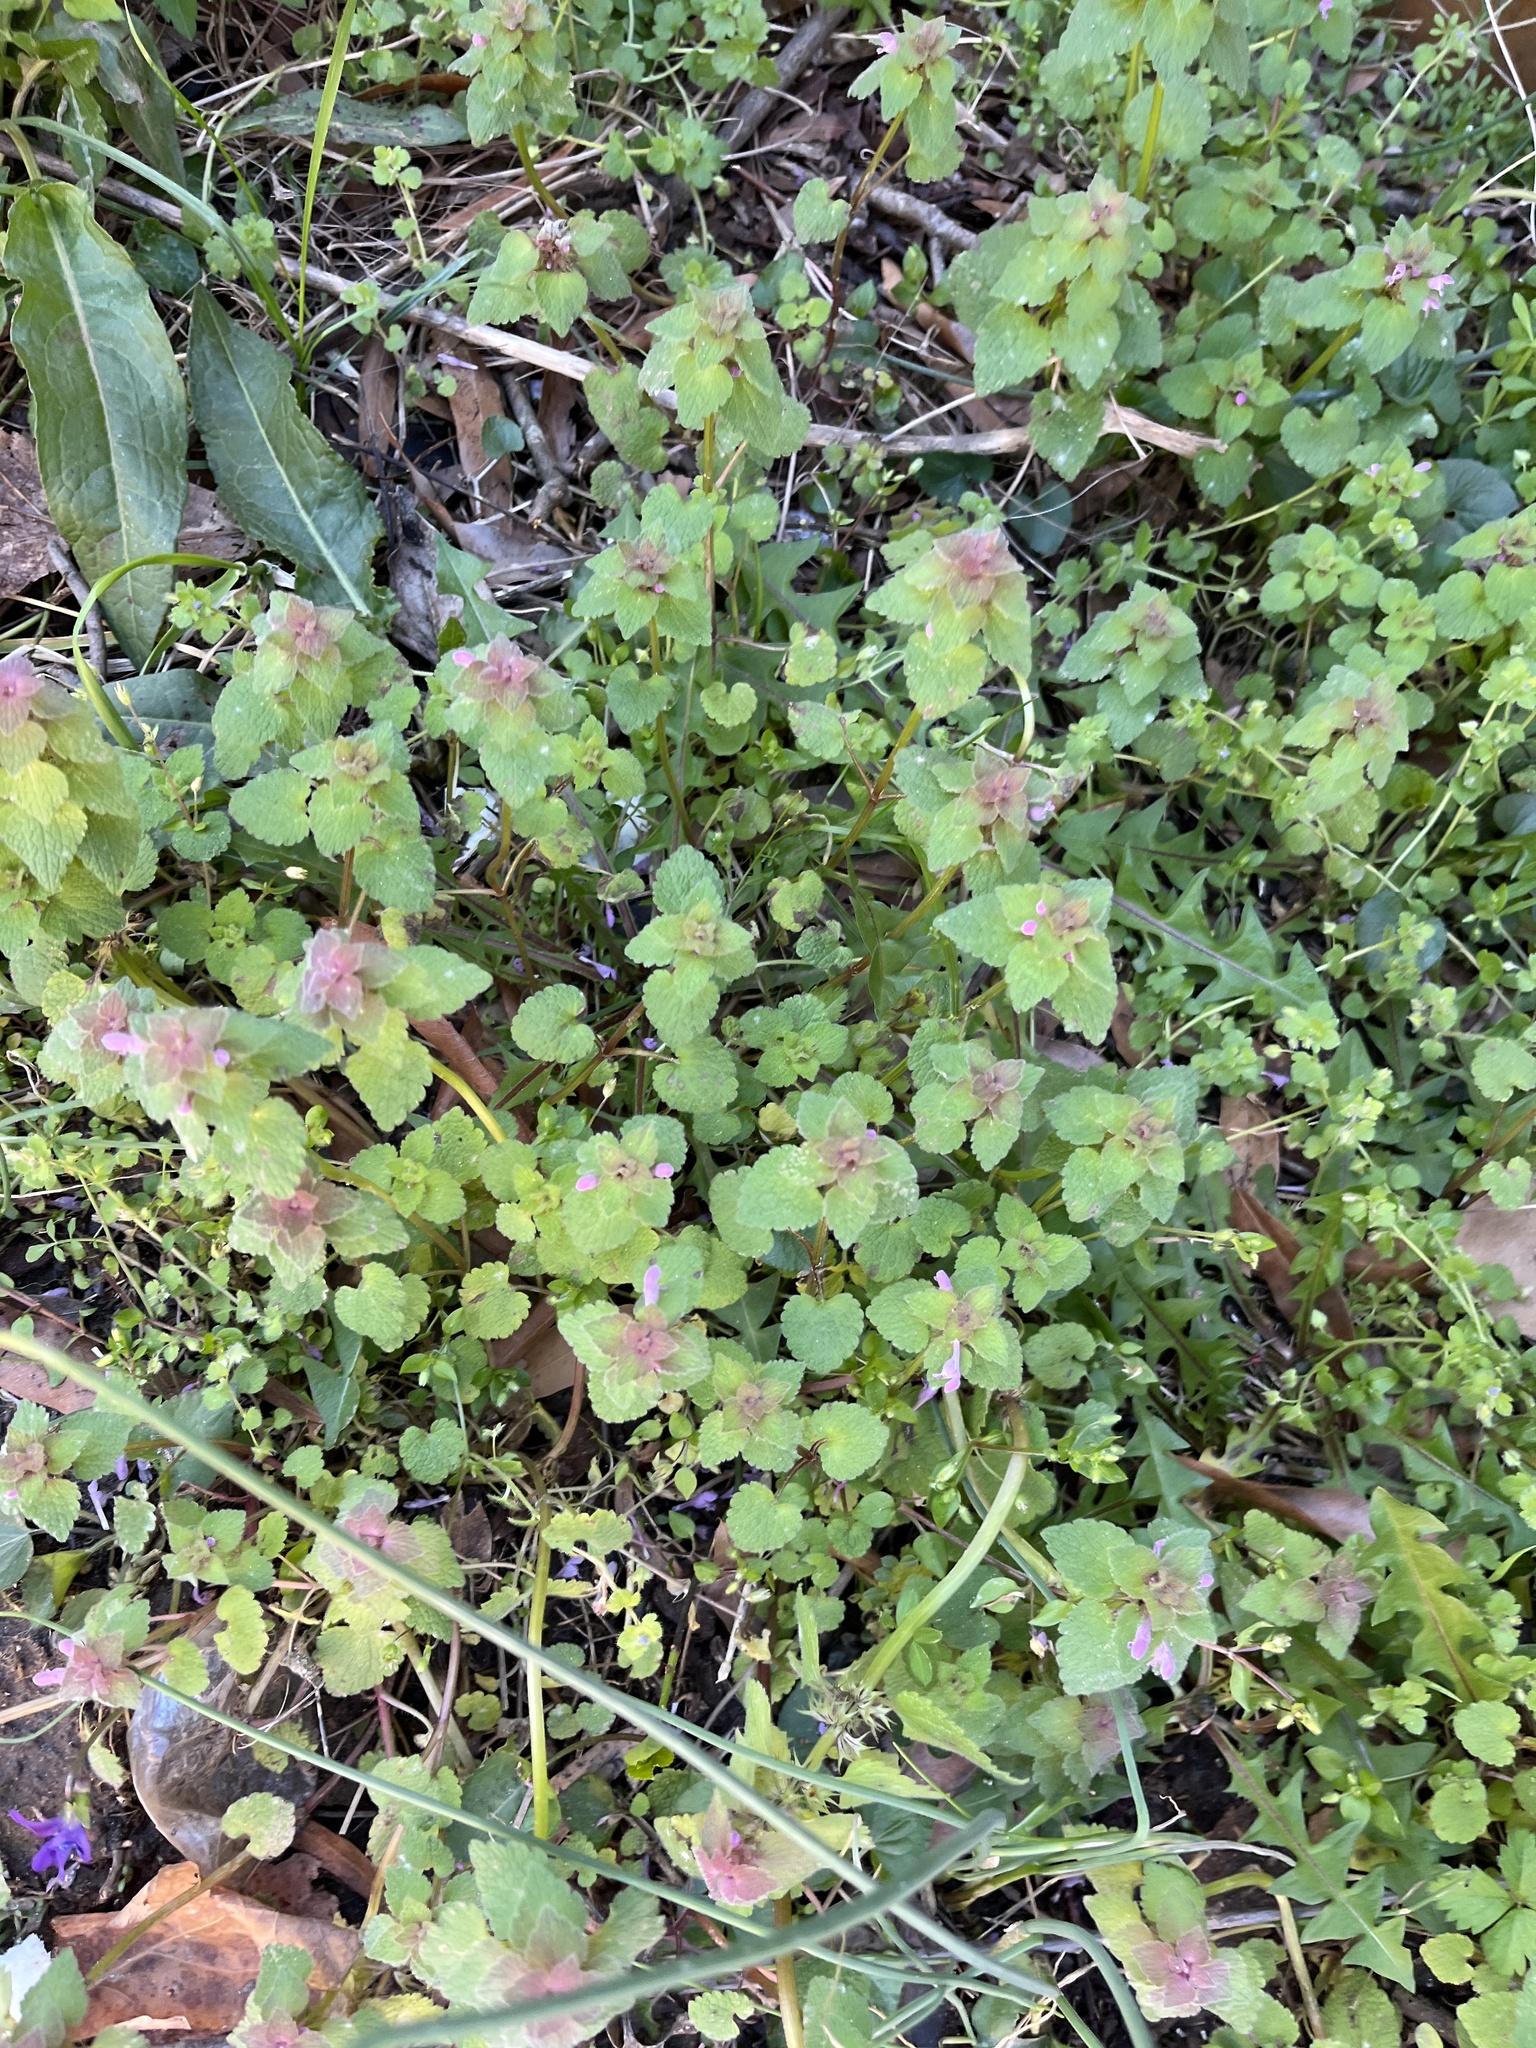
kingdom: Plantae
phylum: Tracheophyta
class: Magnoliopsida
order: Lamiales
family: Lamiaceae
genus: Lamium
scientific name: Lamium purpureum
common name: Red dead-nettle
